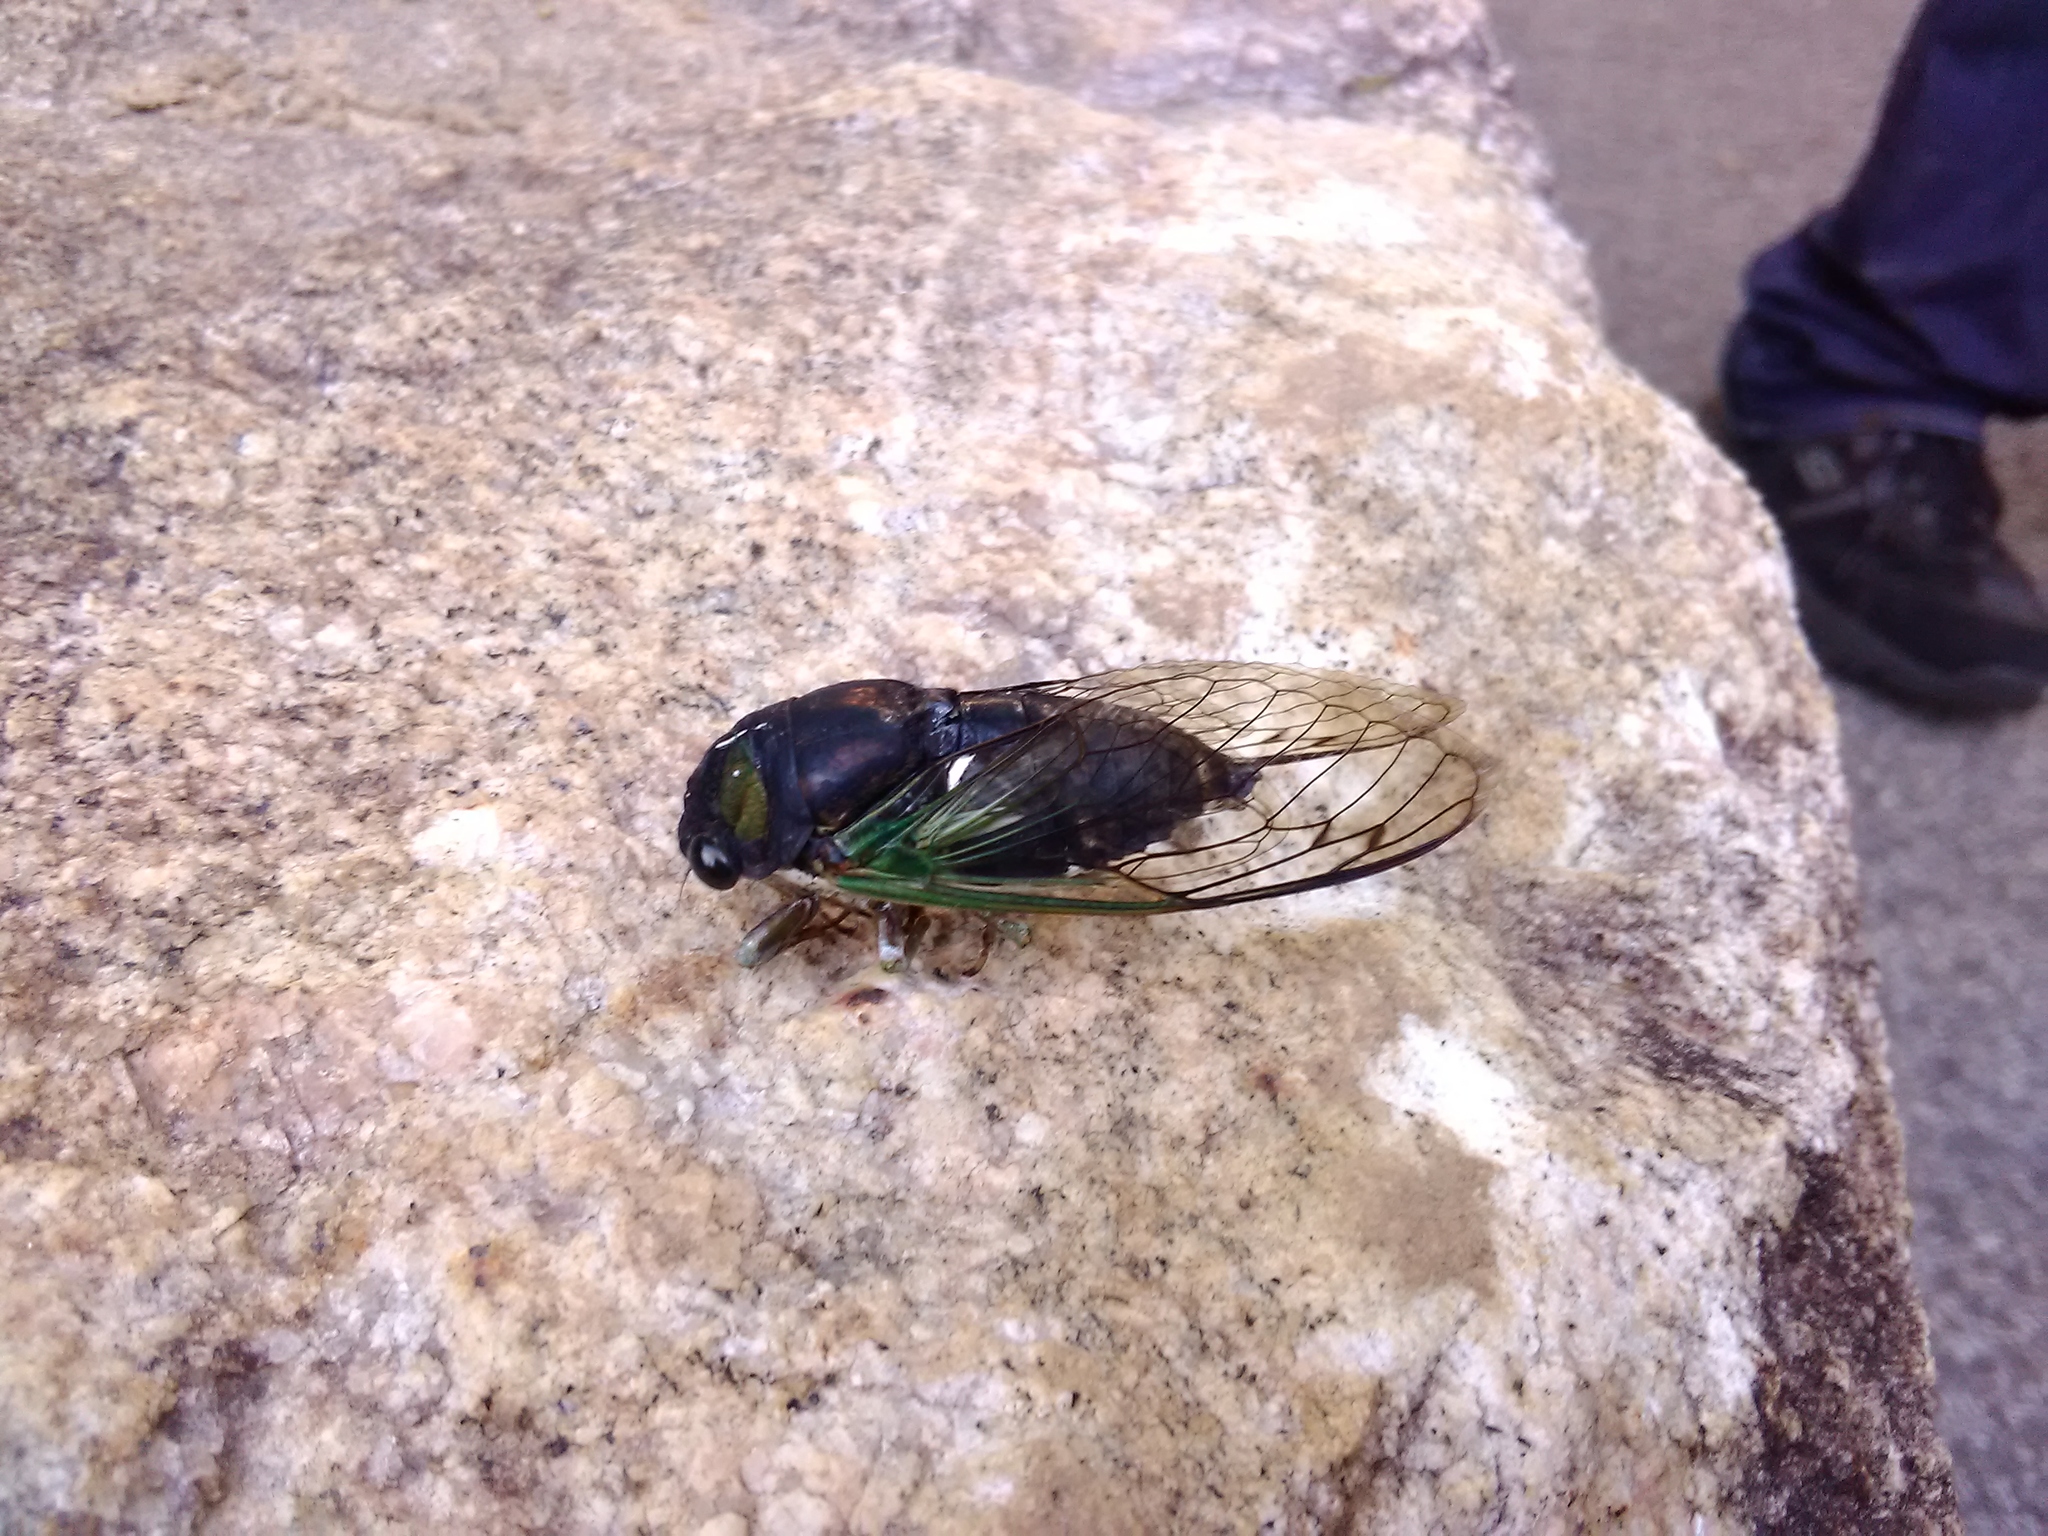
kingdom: Animalia
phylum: Arthropoda
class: Insecta
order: Hemiptera
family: Cicadidae
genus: Neotibicen
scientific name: Neotibicen tibicen
